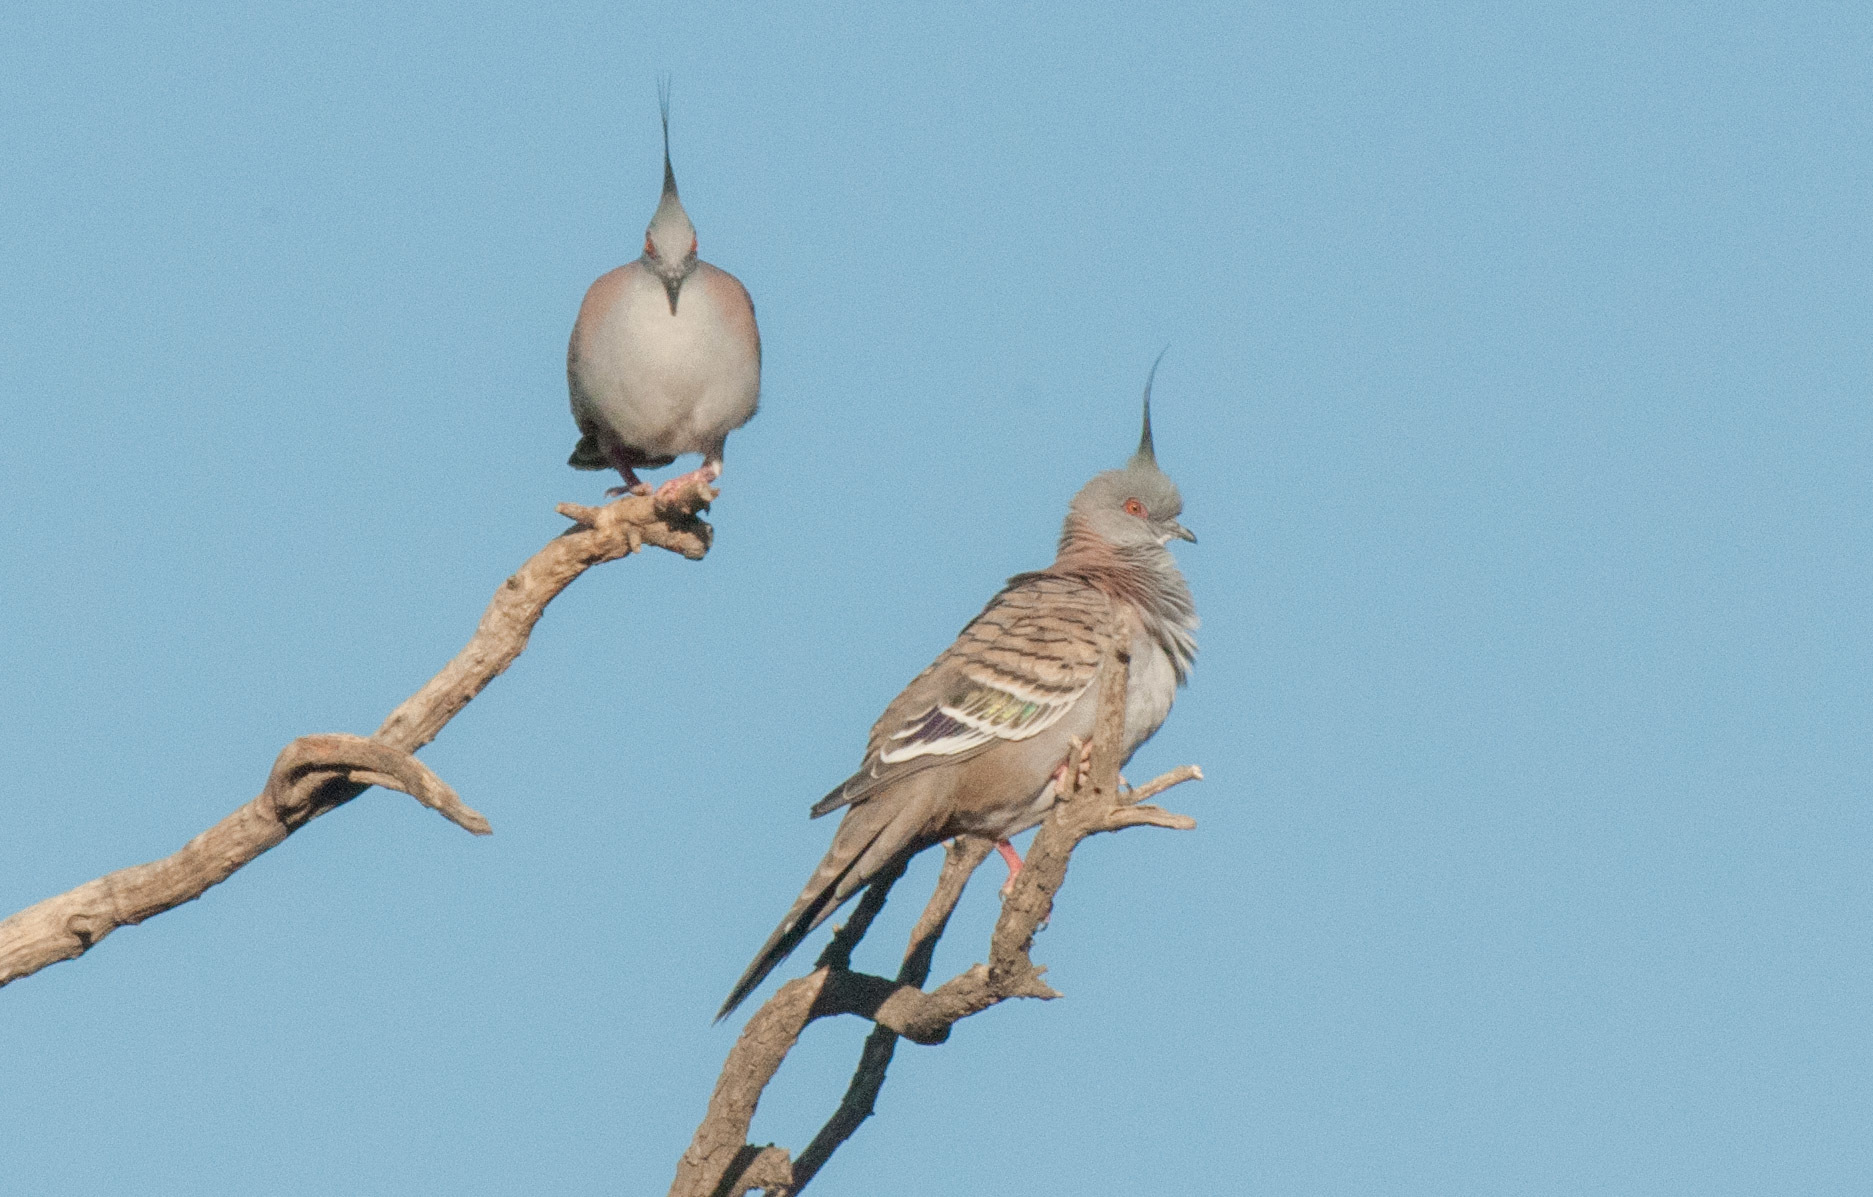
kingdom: Animalia
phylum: Chordata
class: Aves
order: Columbiformes
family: Columbidae
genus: Ocyphaps
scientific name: Ocyphaps lophotes
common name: Crested pigeon
